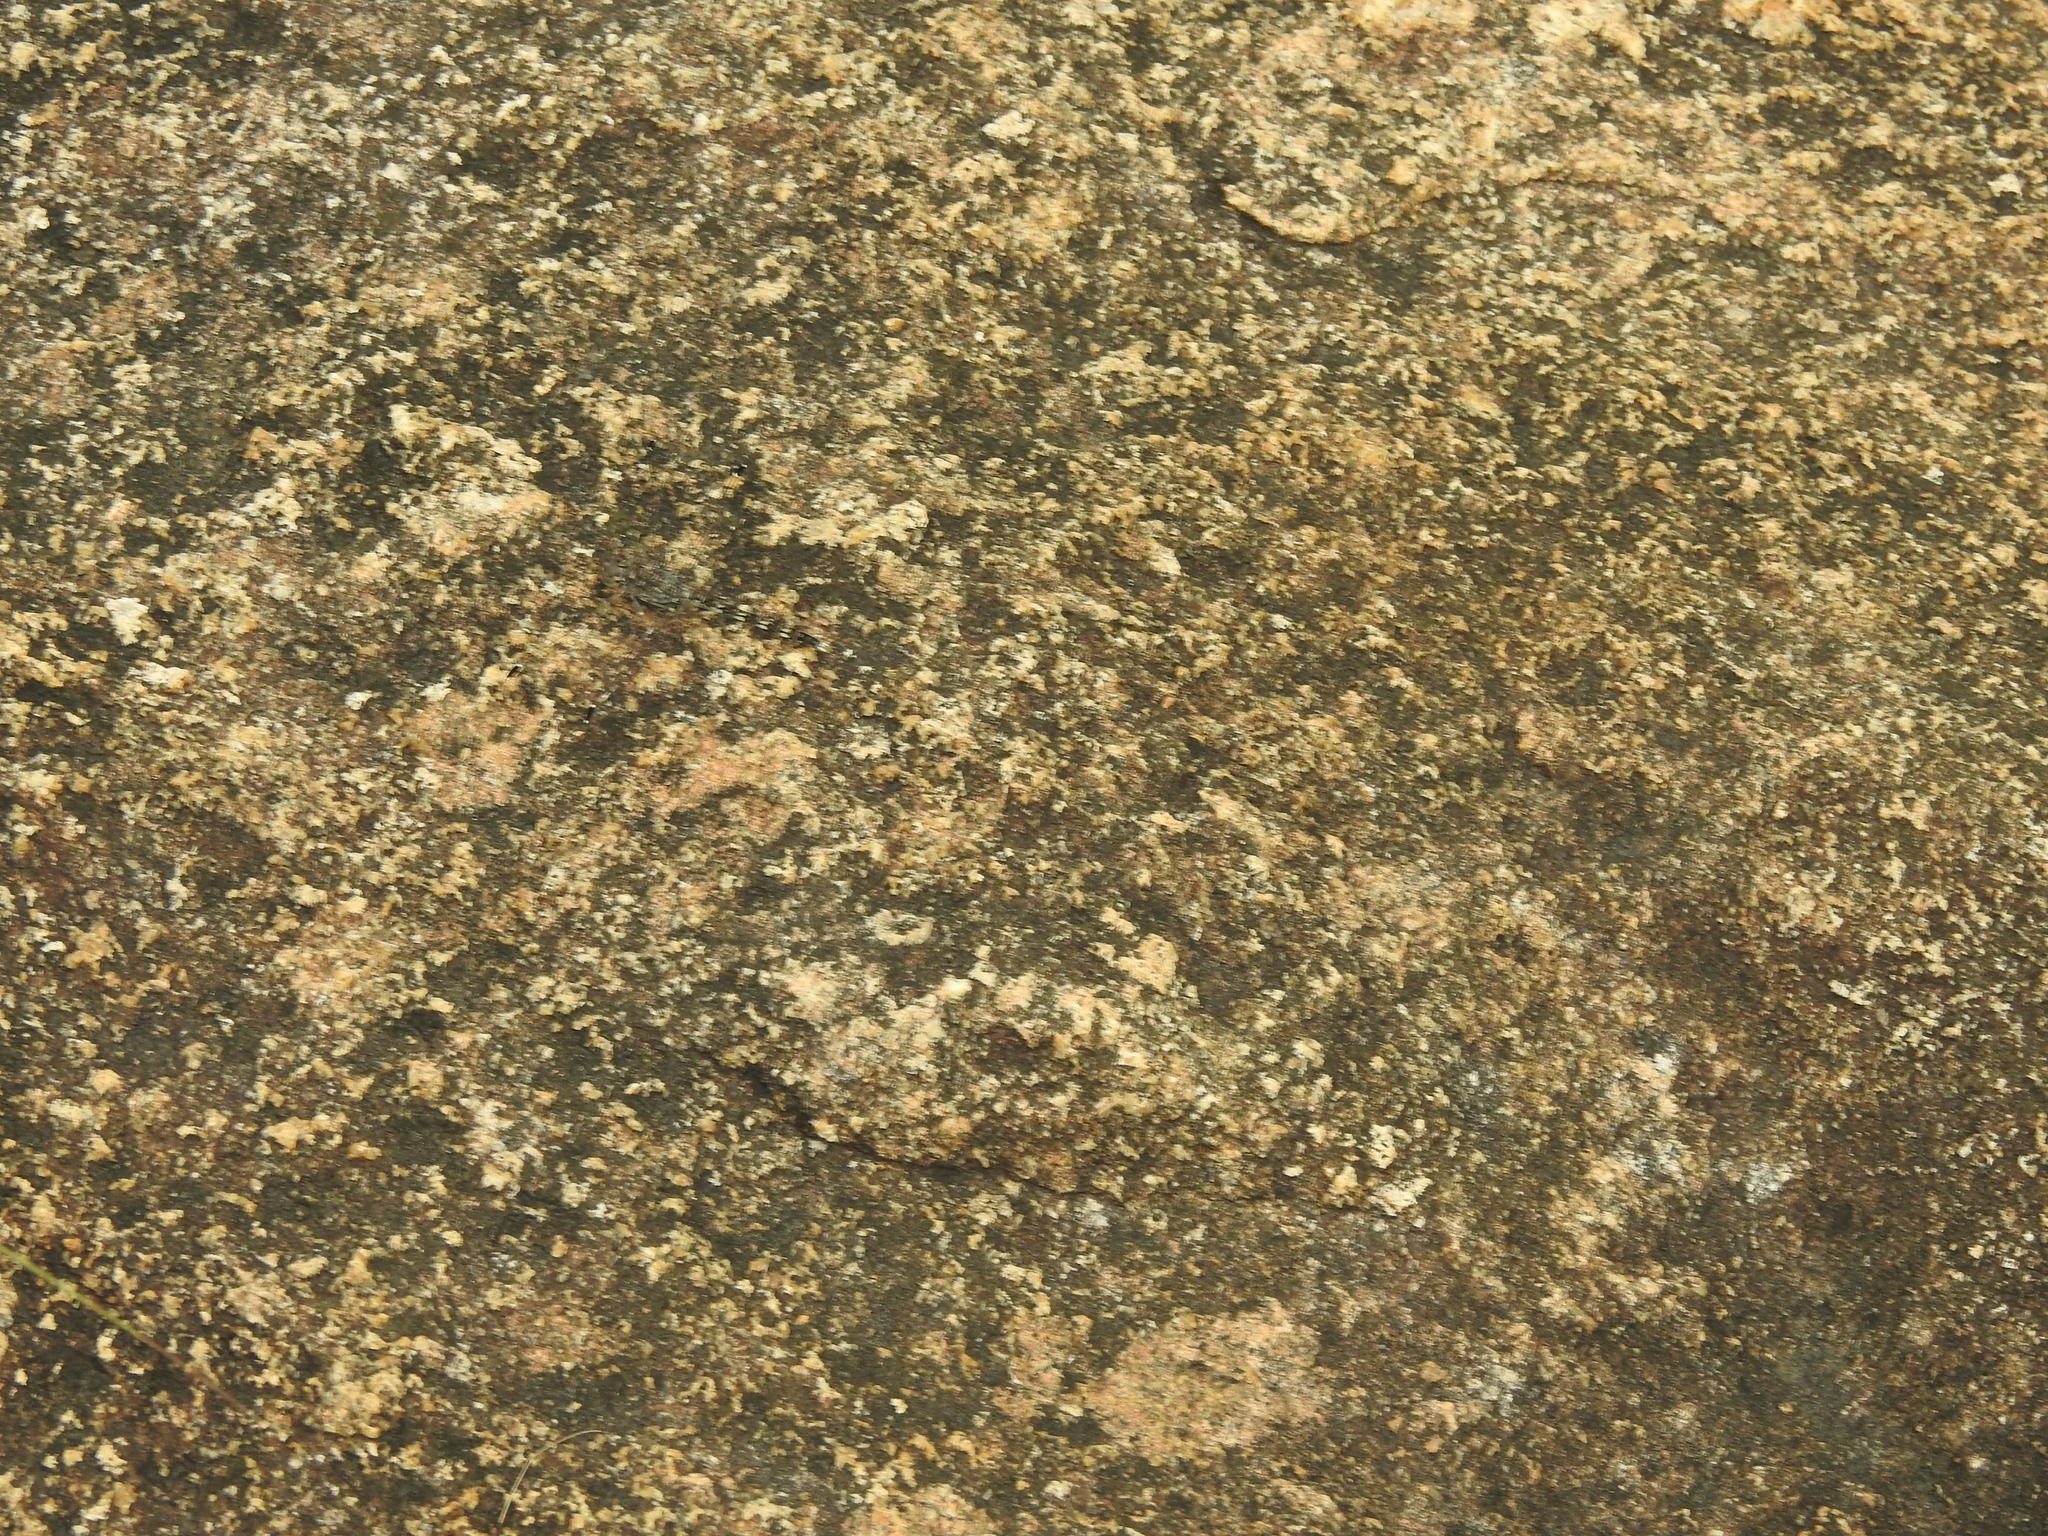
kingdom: Animalia
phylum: Arthropoda
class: Insecta
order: Odonata
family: Libellulidae
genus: Bradinopyga
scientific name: Bradinopyga geminata
